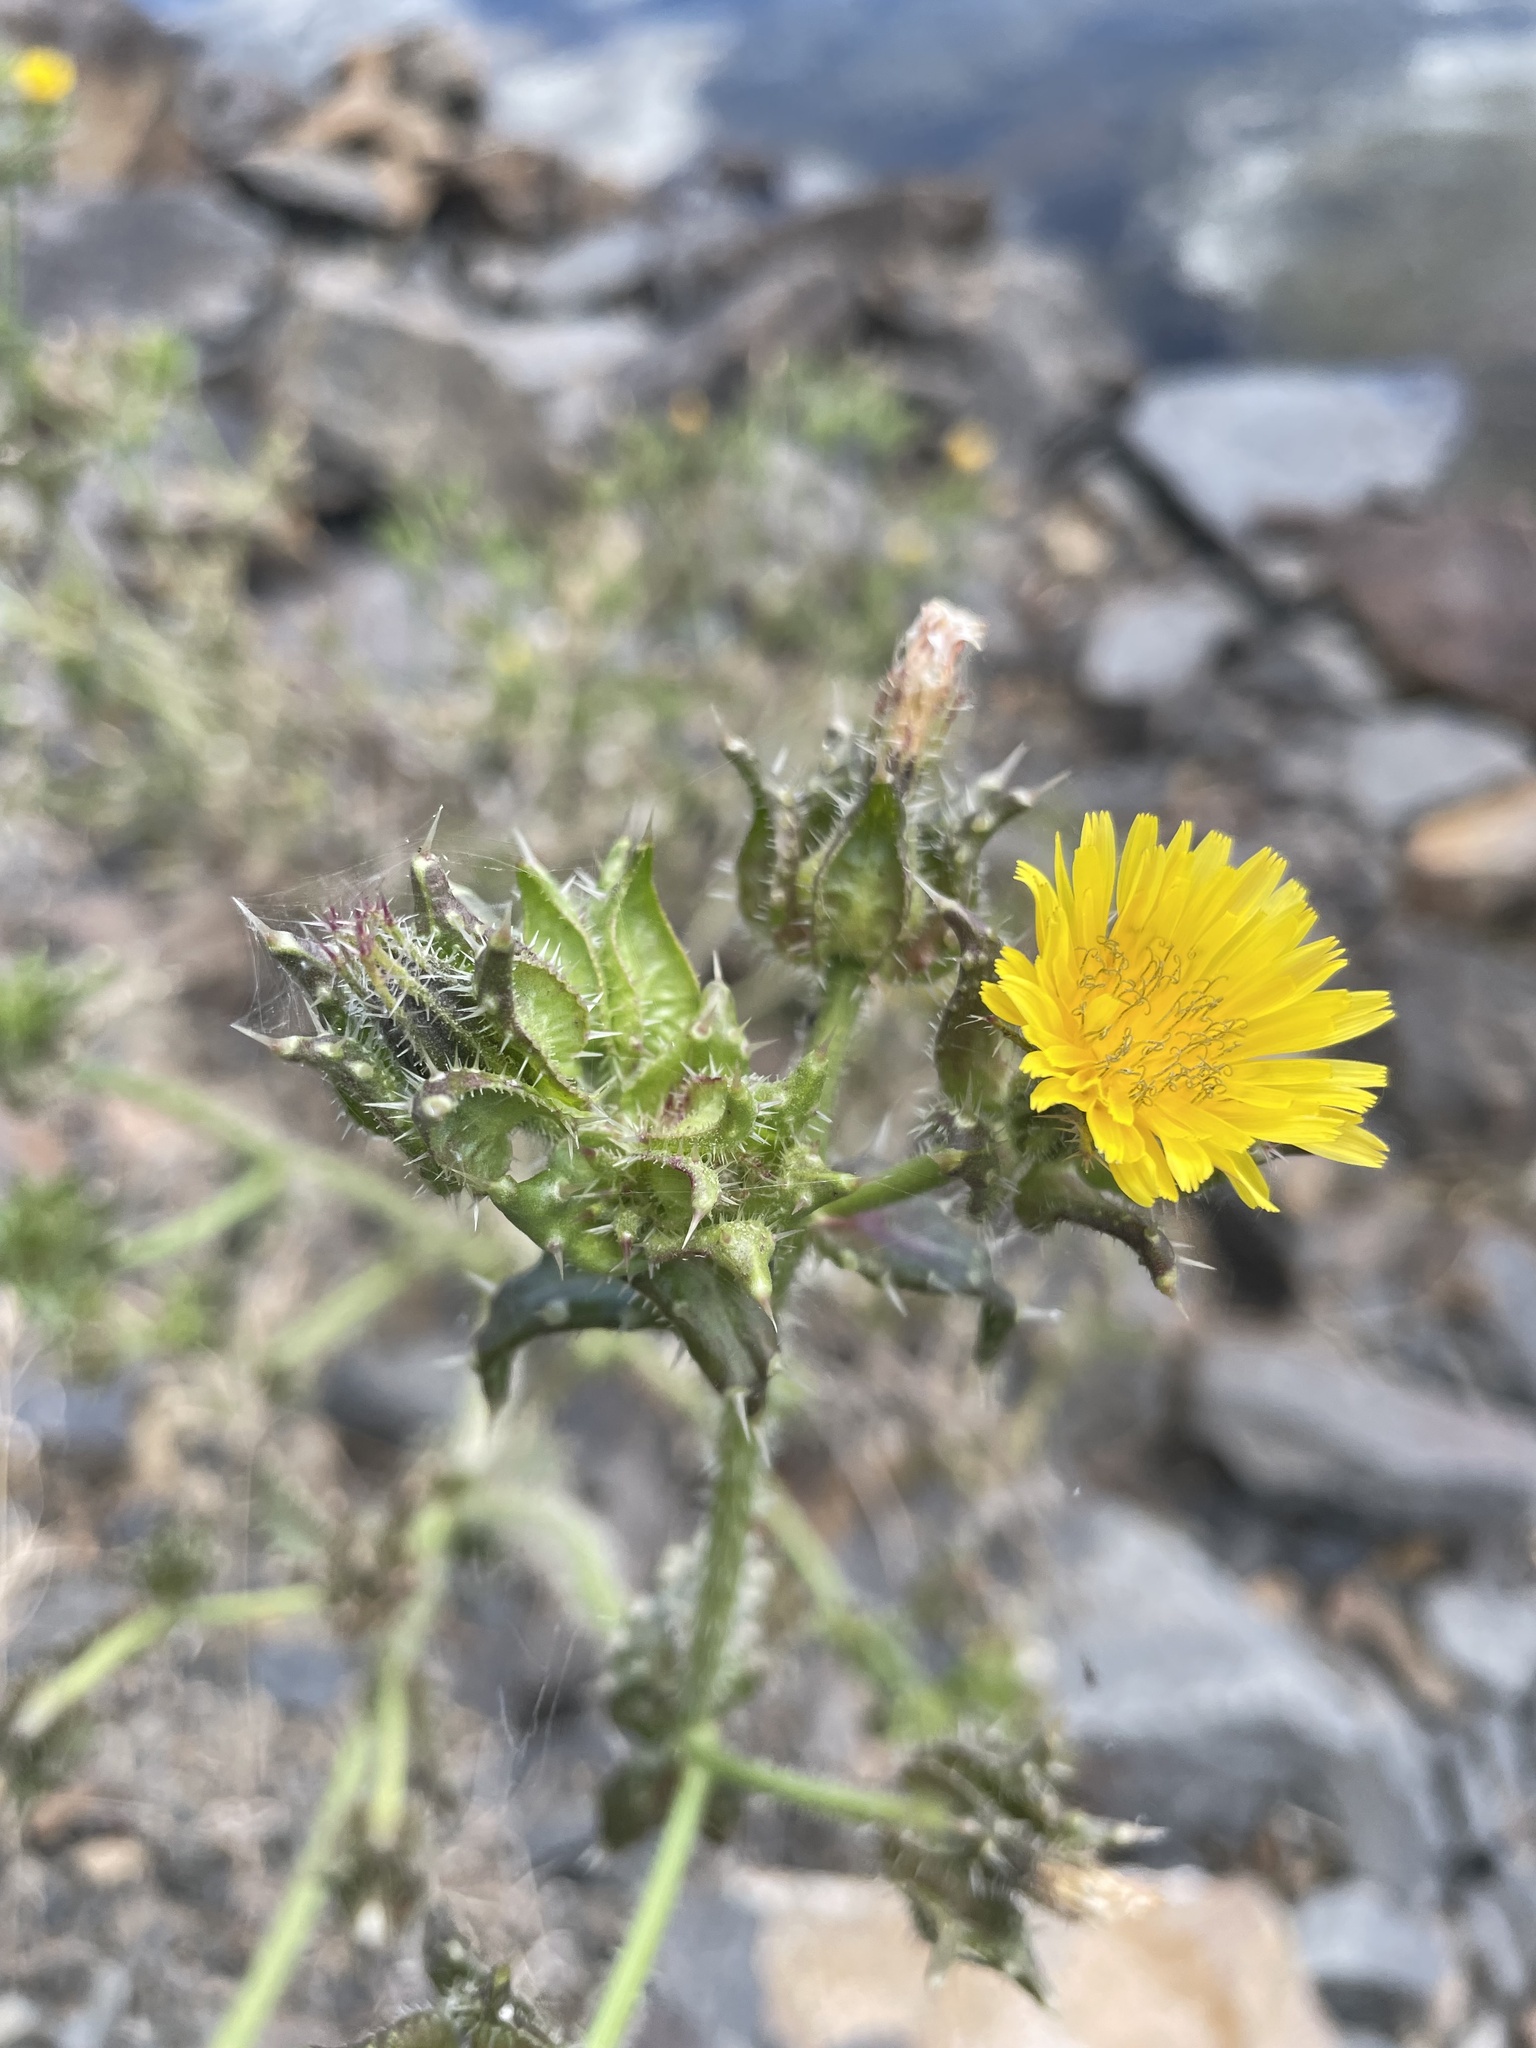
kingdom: Plantae
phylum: Tracheophyta
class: Magnoliopsida
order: Asterales
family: Asteraceae
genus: Helminthotheca
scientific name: Helminthotheca echioides
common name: Ox-tongue
